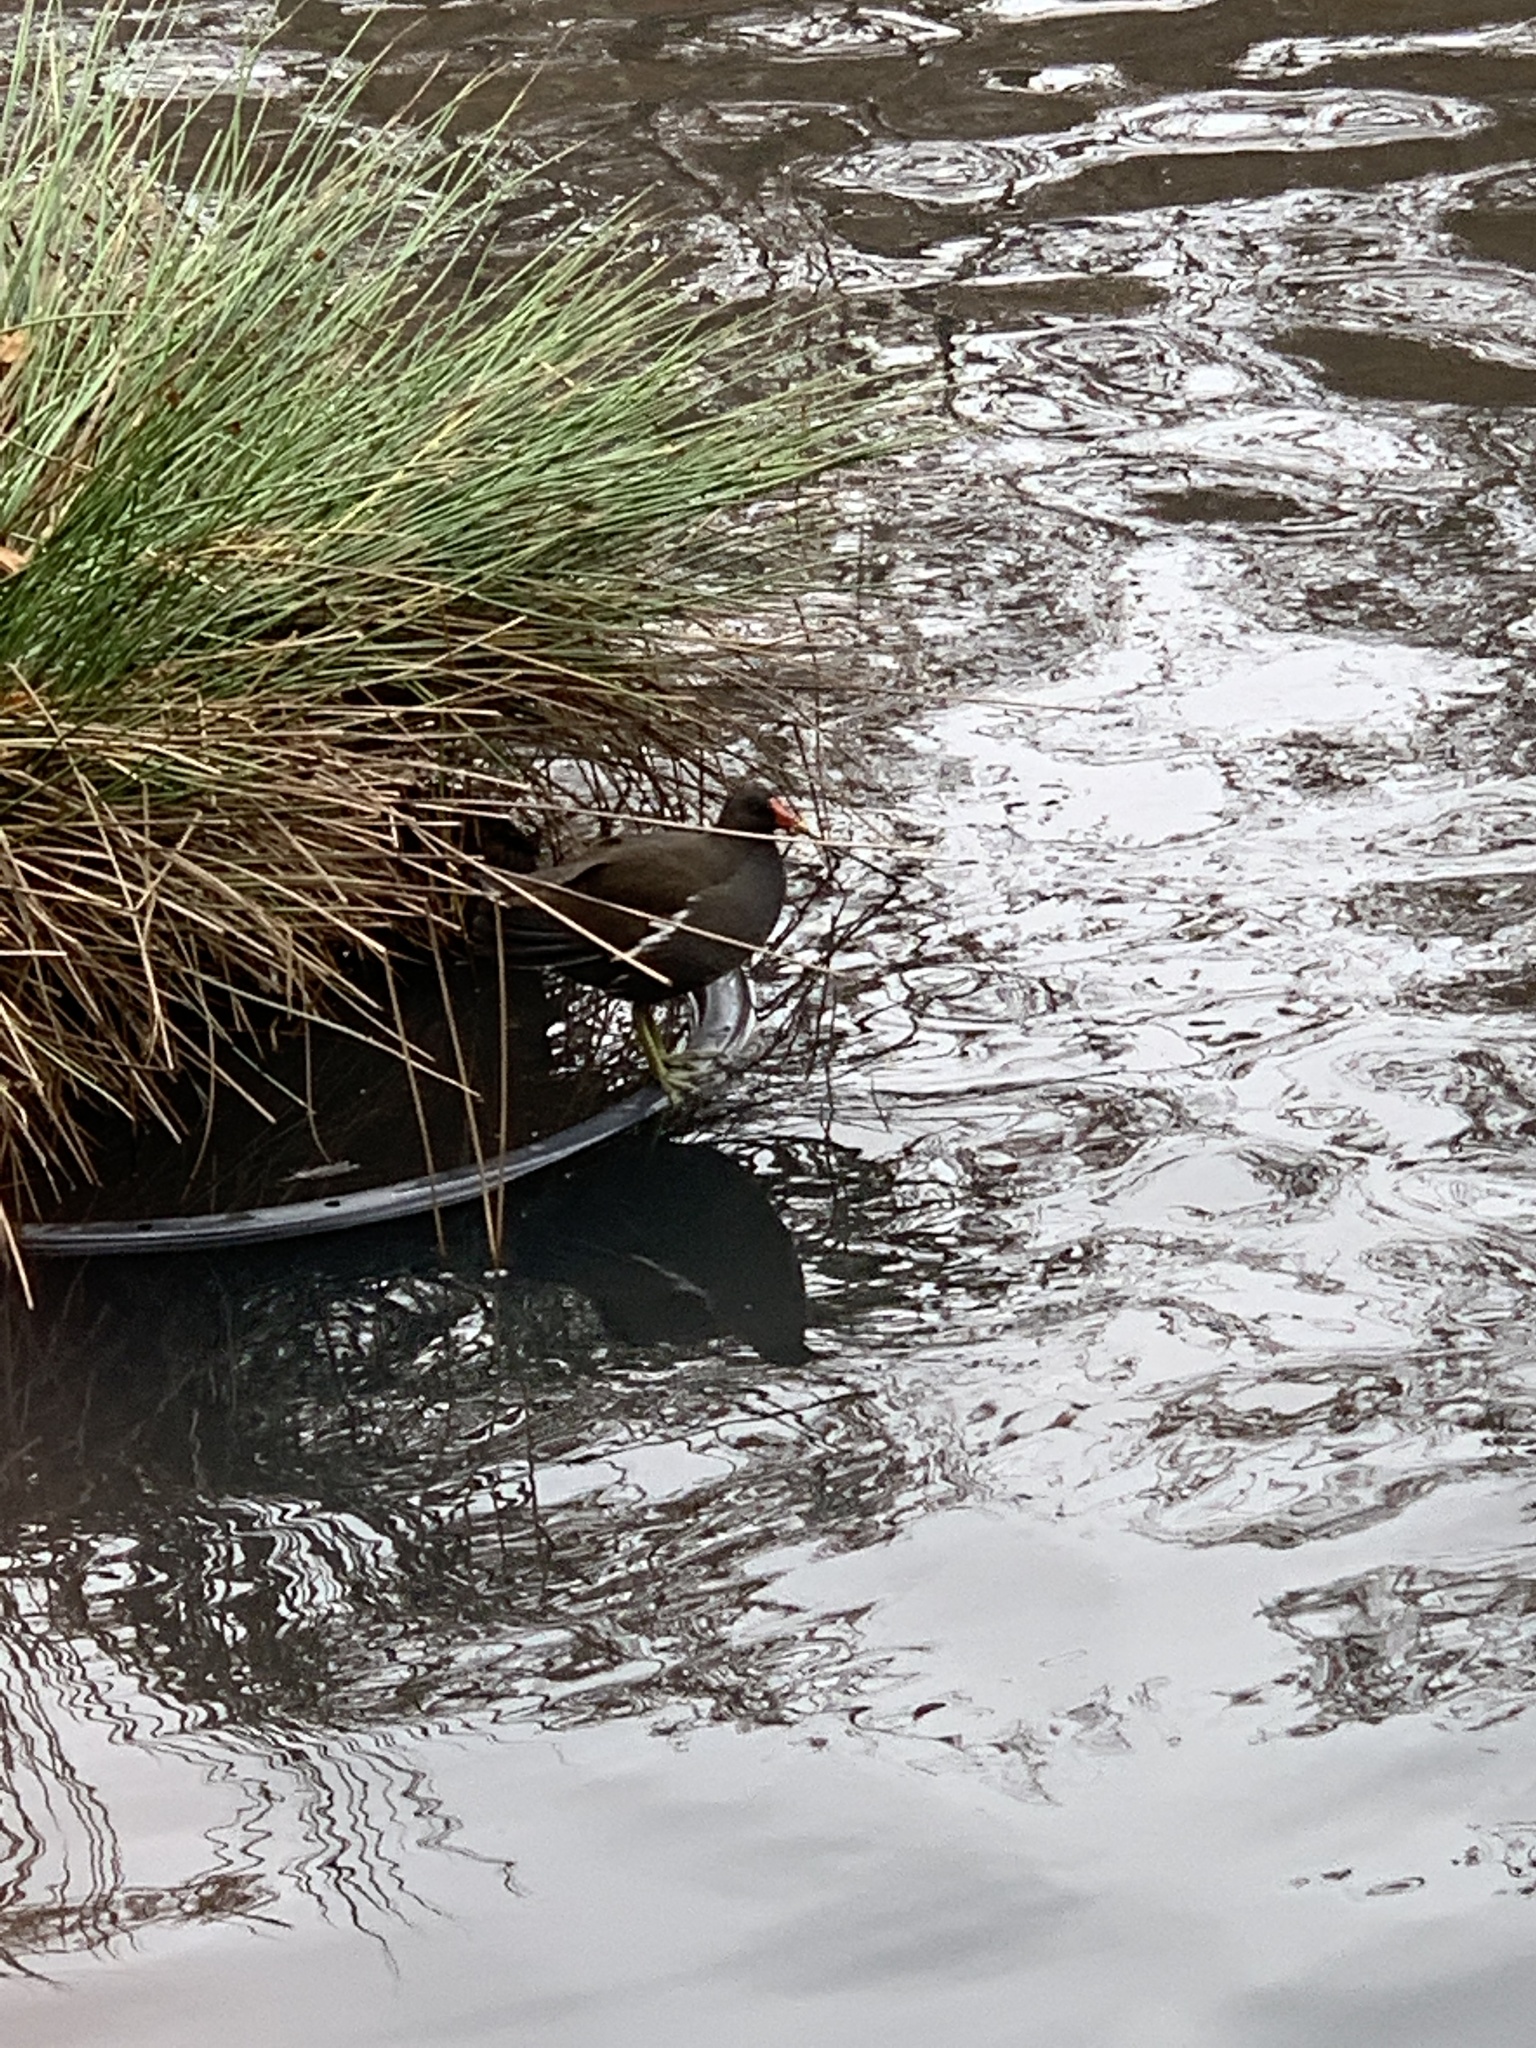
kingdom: Animalia
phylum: Chordata
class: Aves
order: Gruiformes
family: Rallidae
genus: Gallinula
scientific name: Gallinula chloropus
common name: Common moorhen
